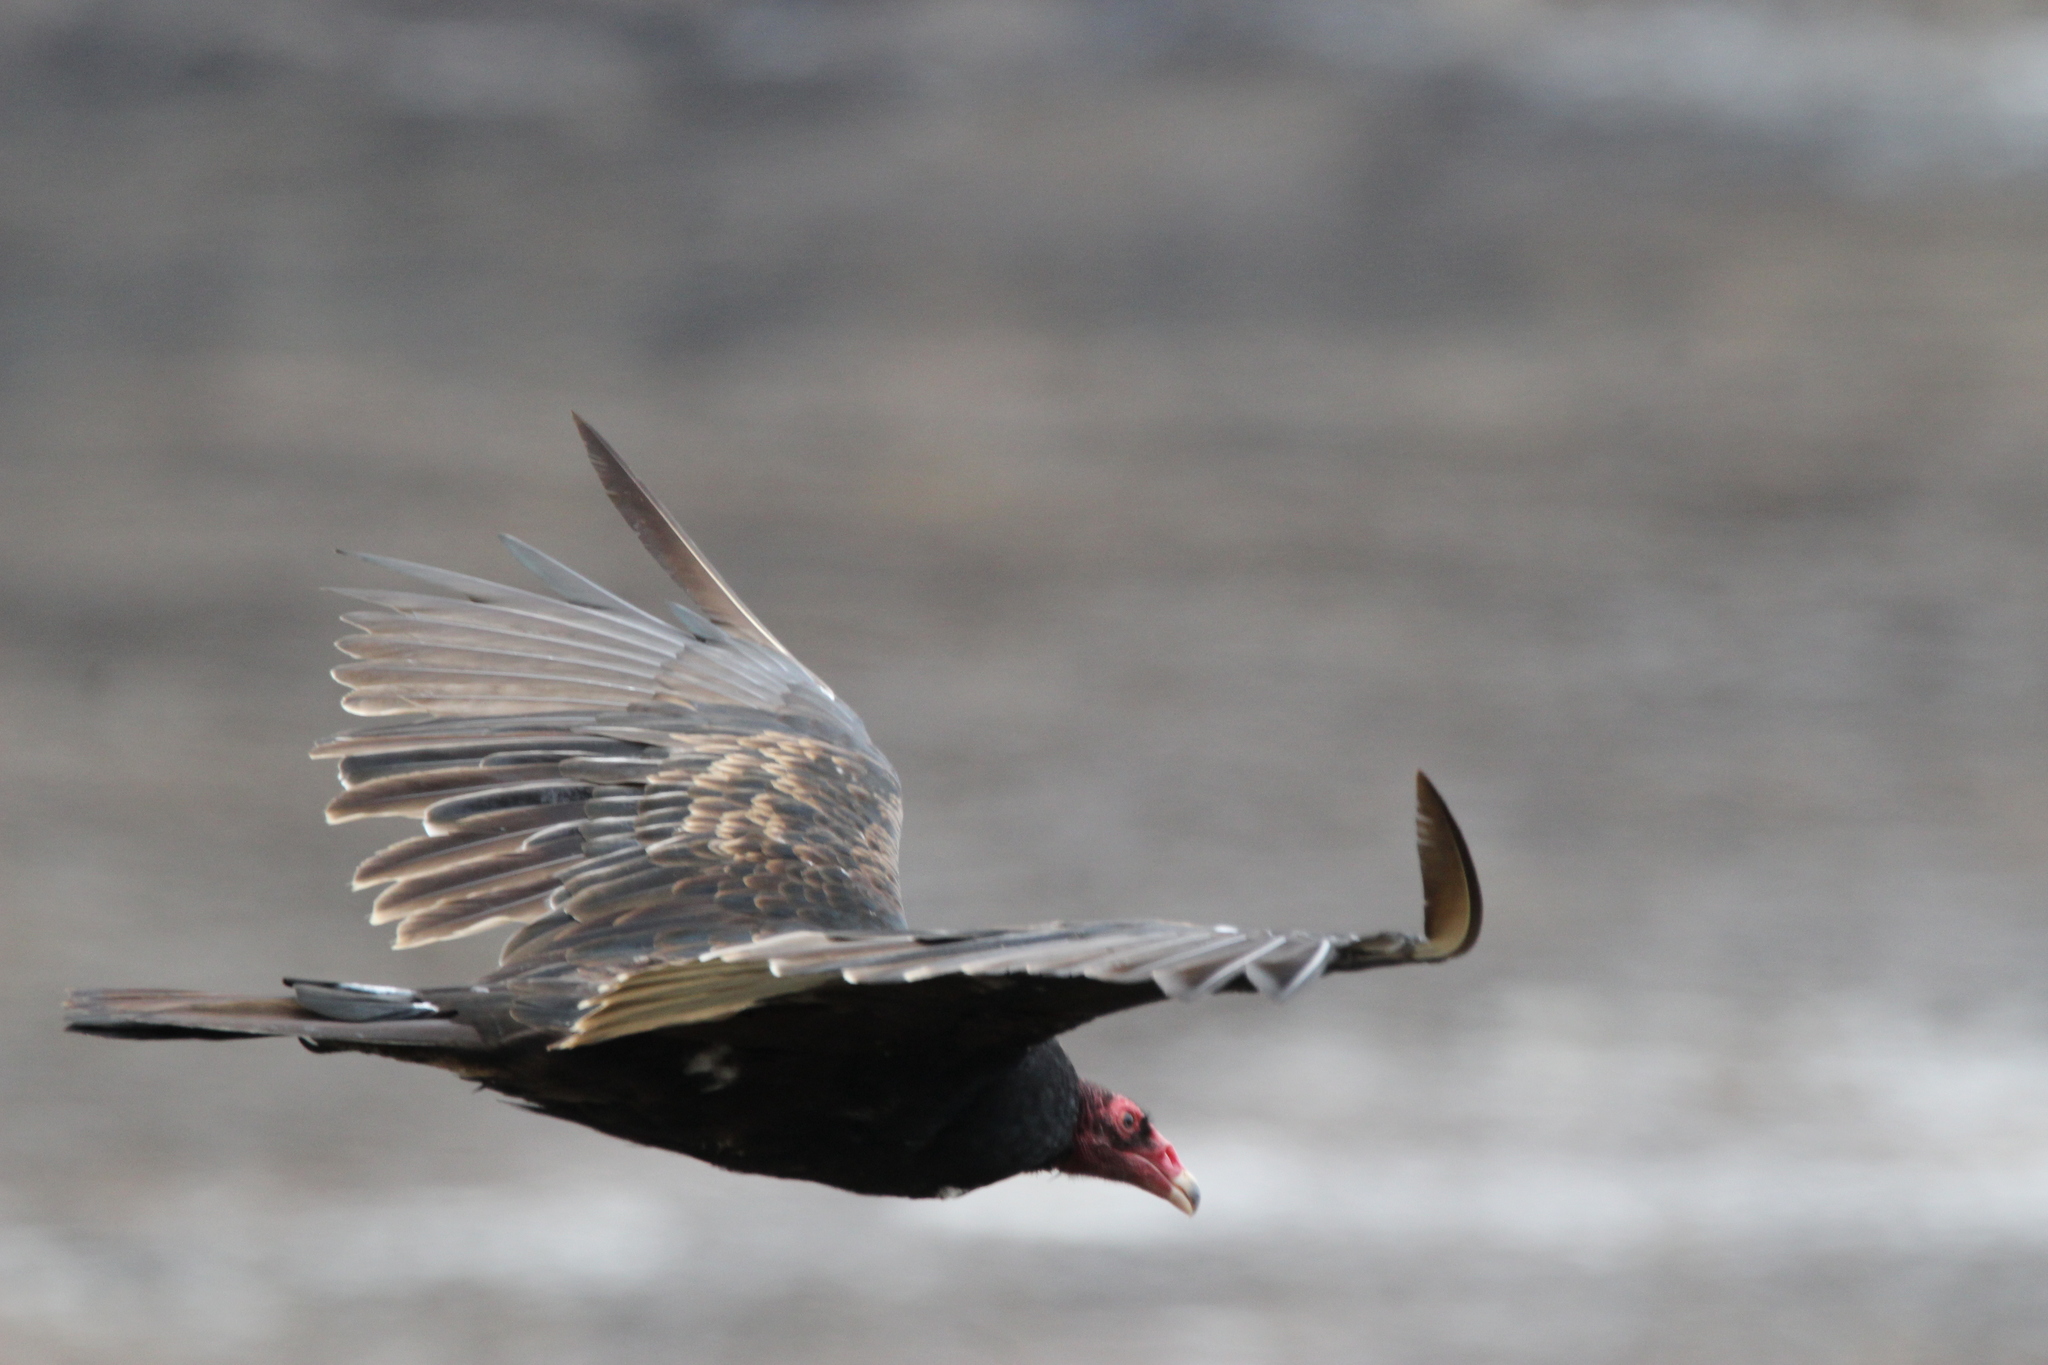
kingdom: Animalia
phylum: Chordata
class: Aves
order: Accipitriformes
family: Cathartidae
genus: Cathartes
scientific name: Cathartes aura
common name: Turkey vulture
